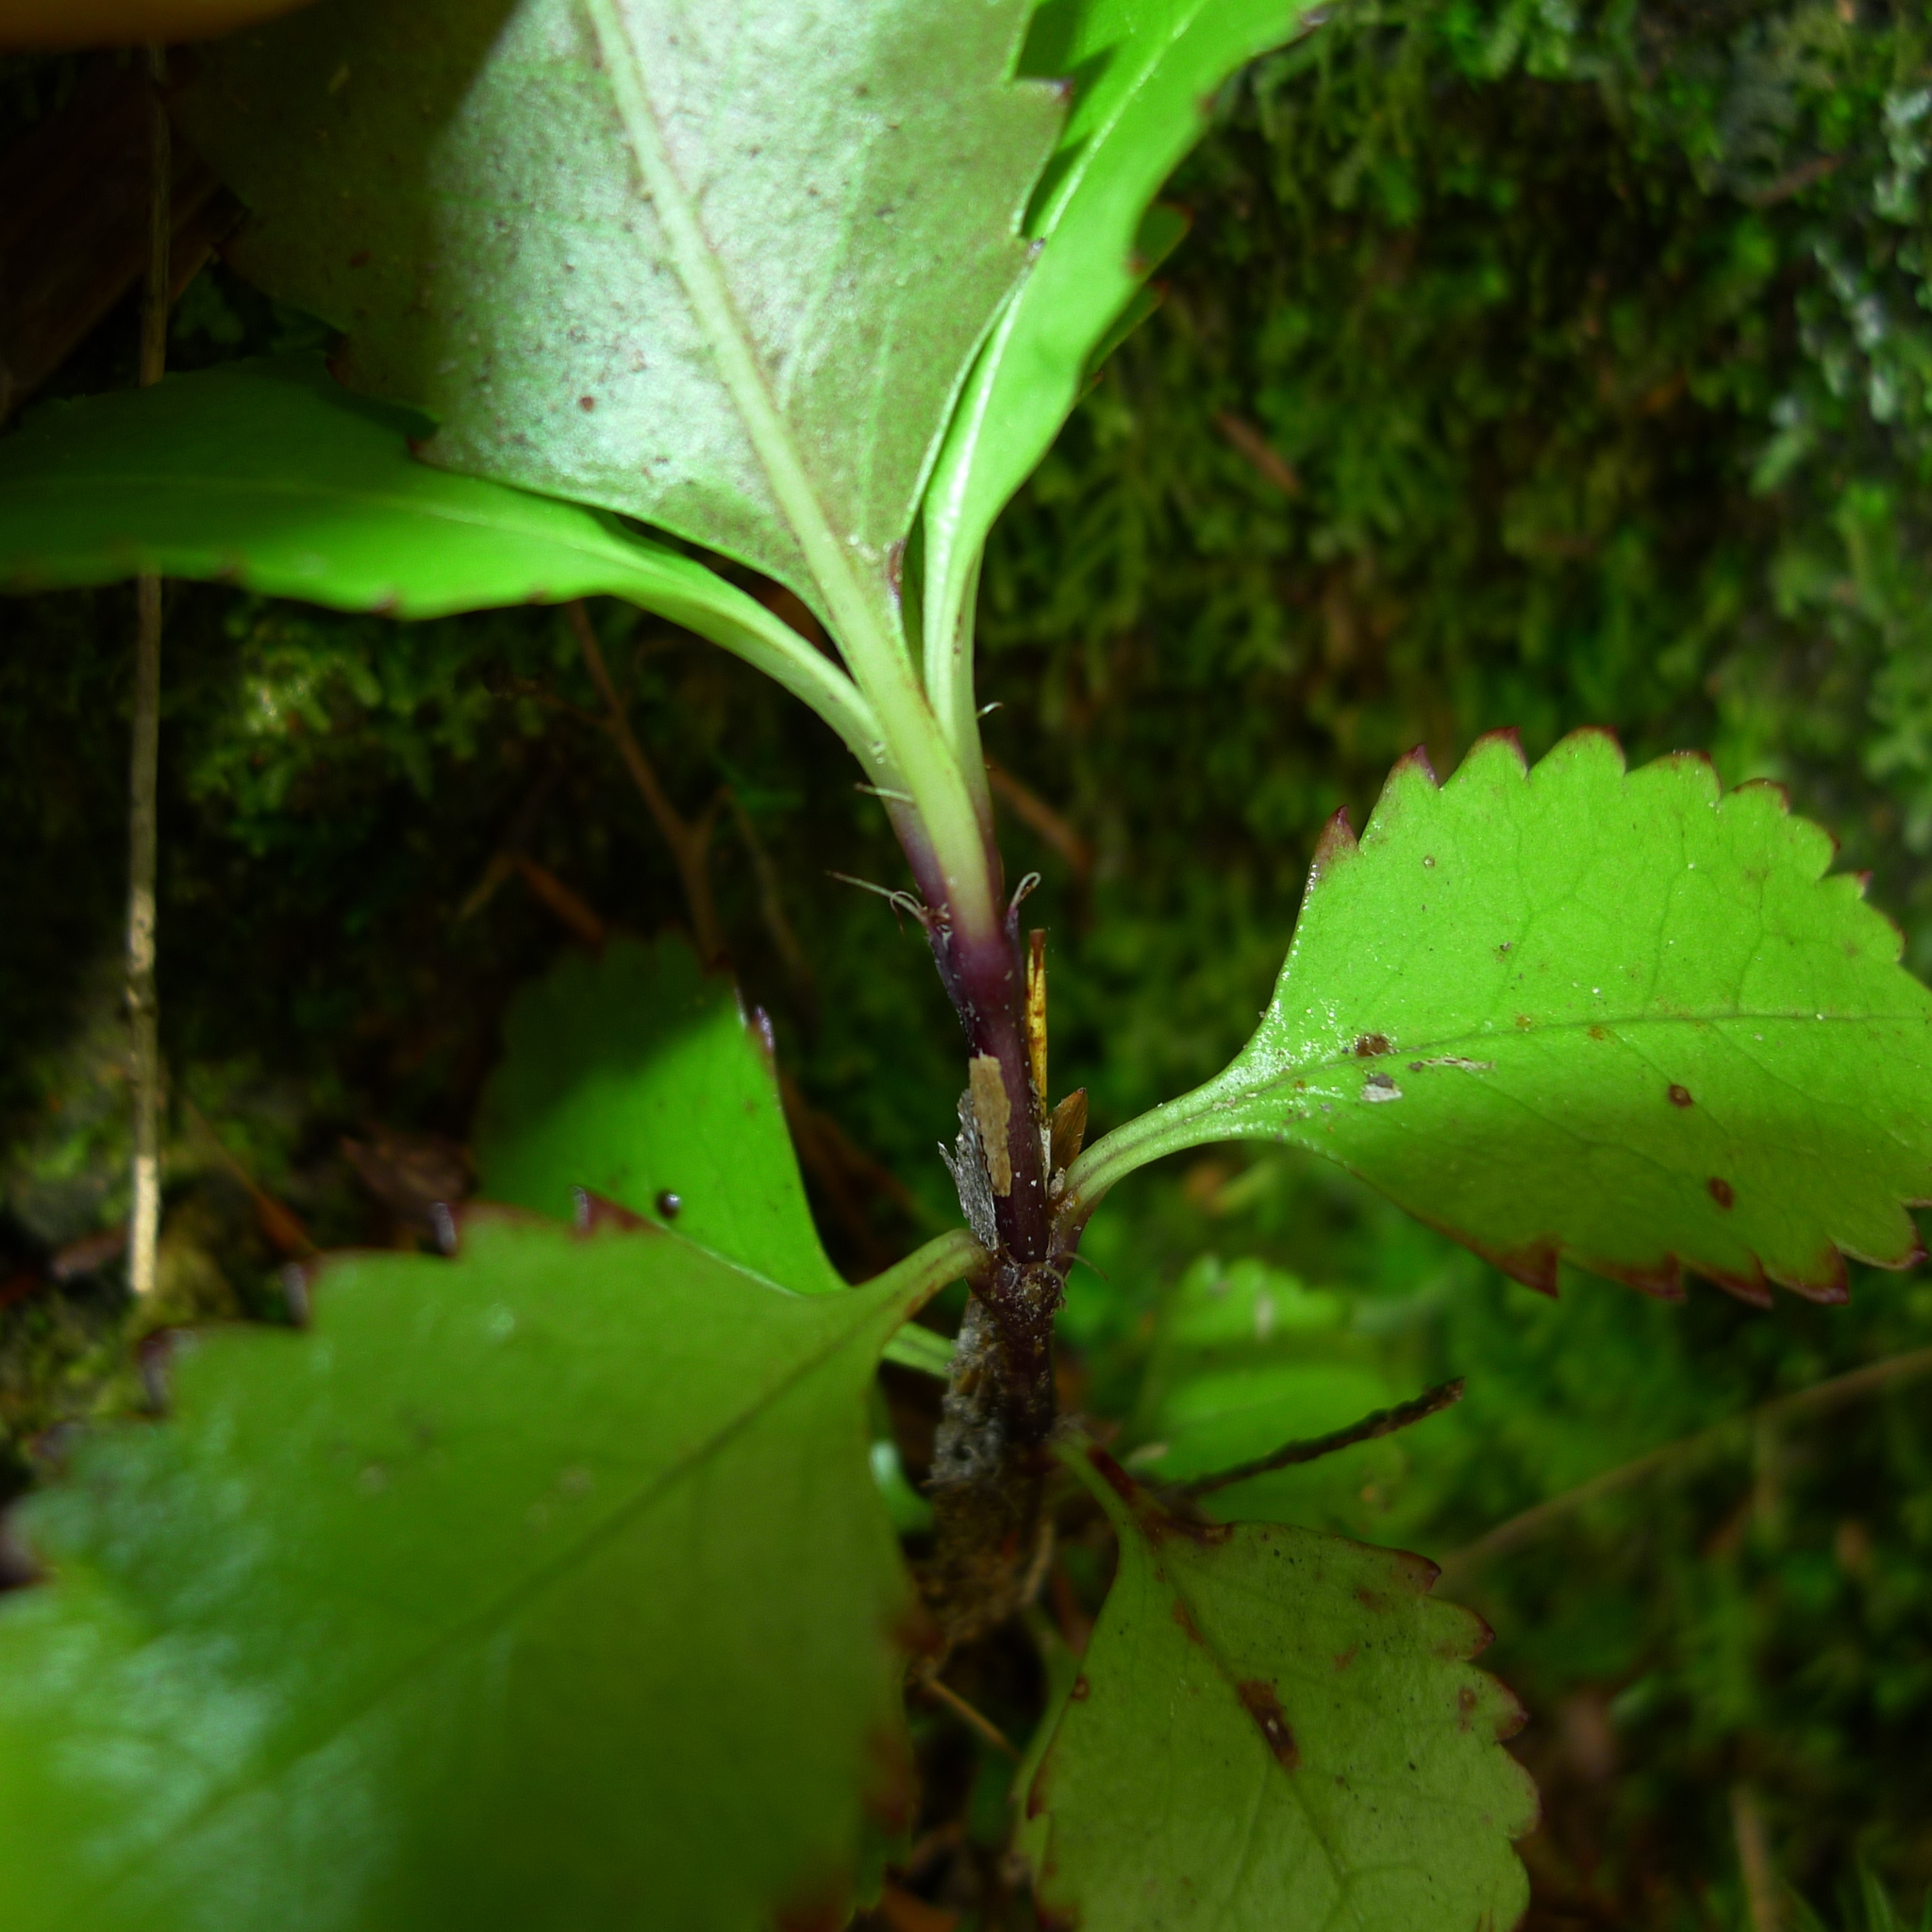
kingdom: Plantae
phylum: Tracheophyta
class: Magnoliopsida
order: Chloranthales
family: Chloranthaceae
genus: Ascarina
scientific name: Ascarina lucida
